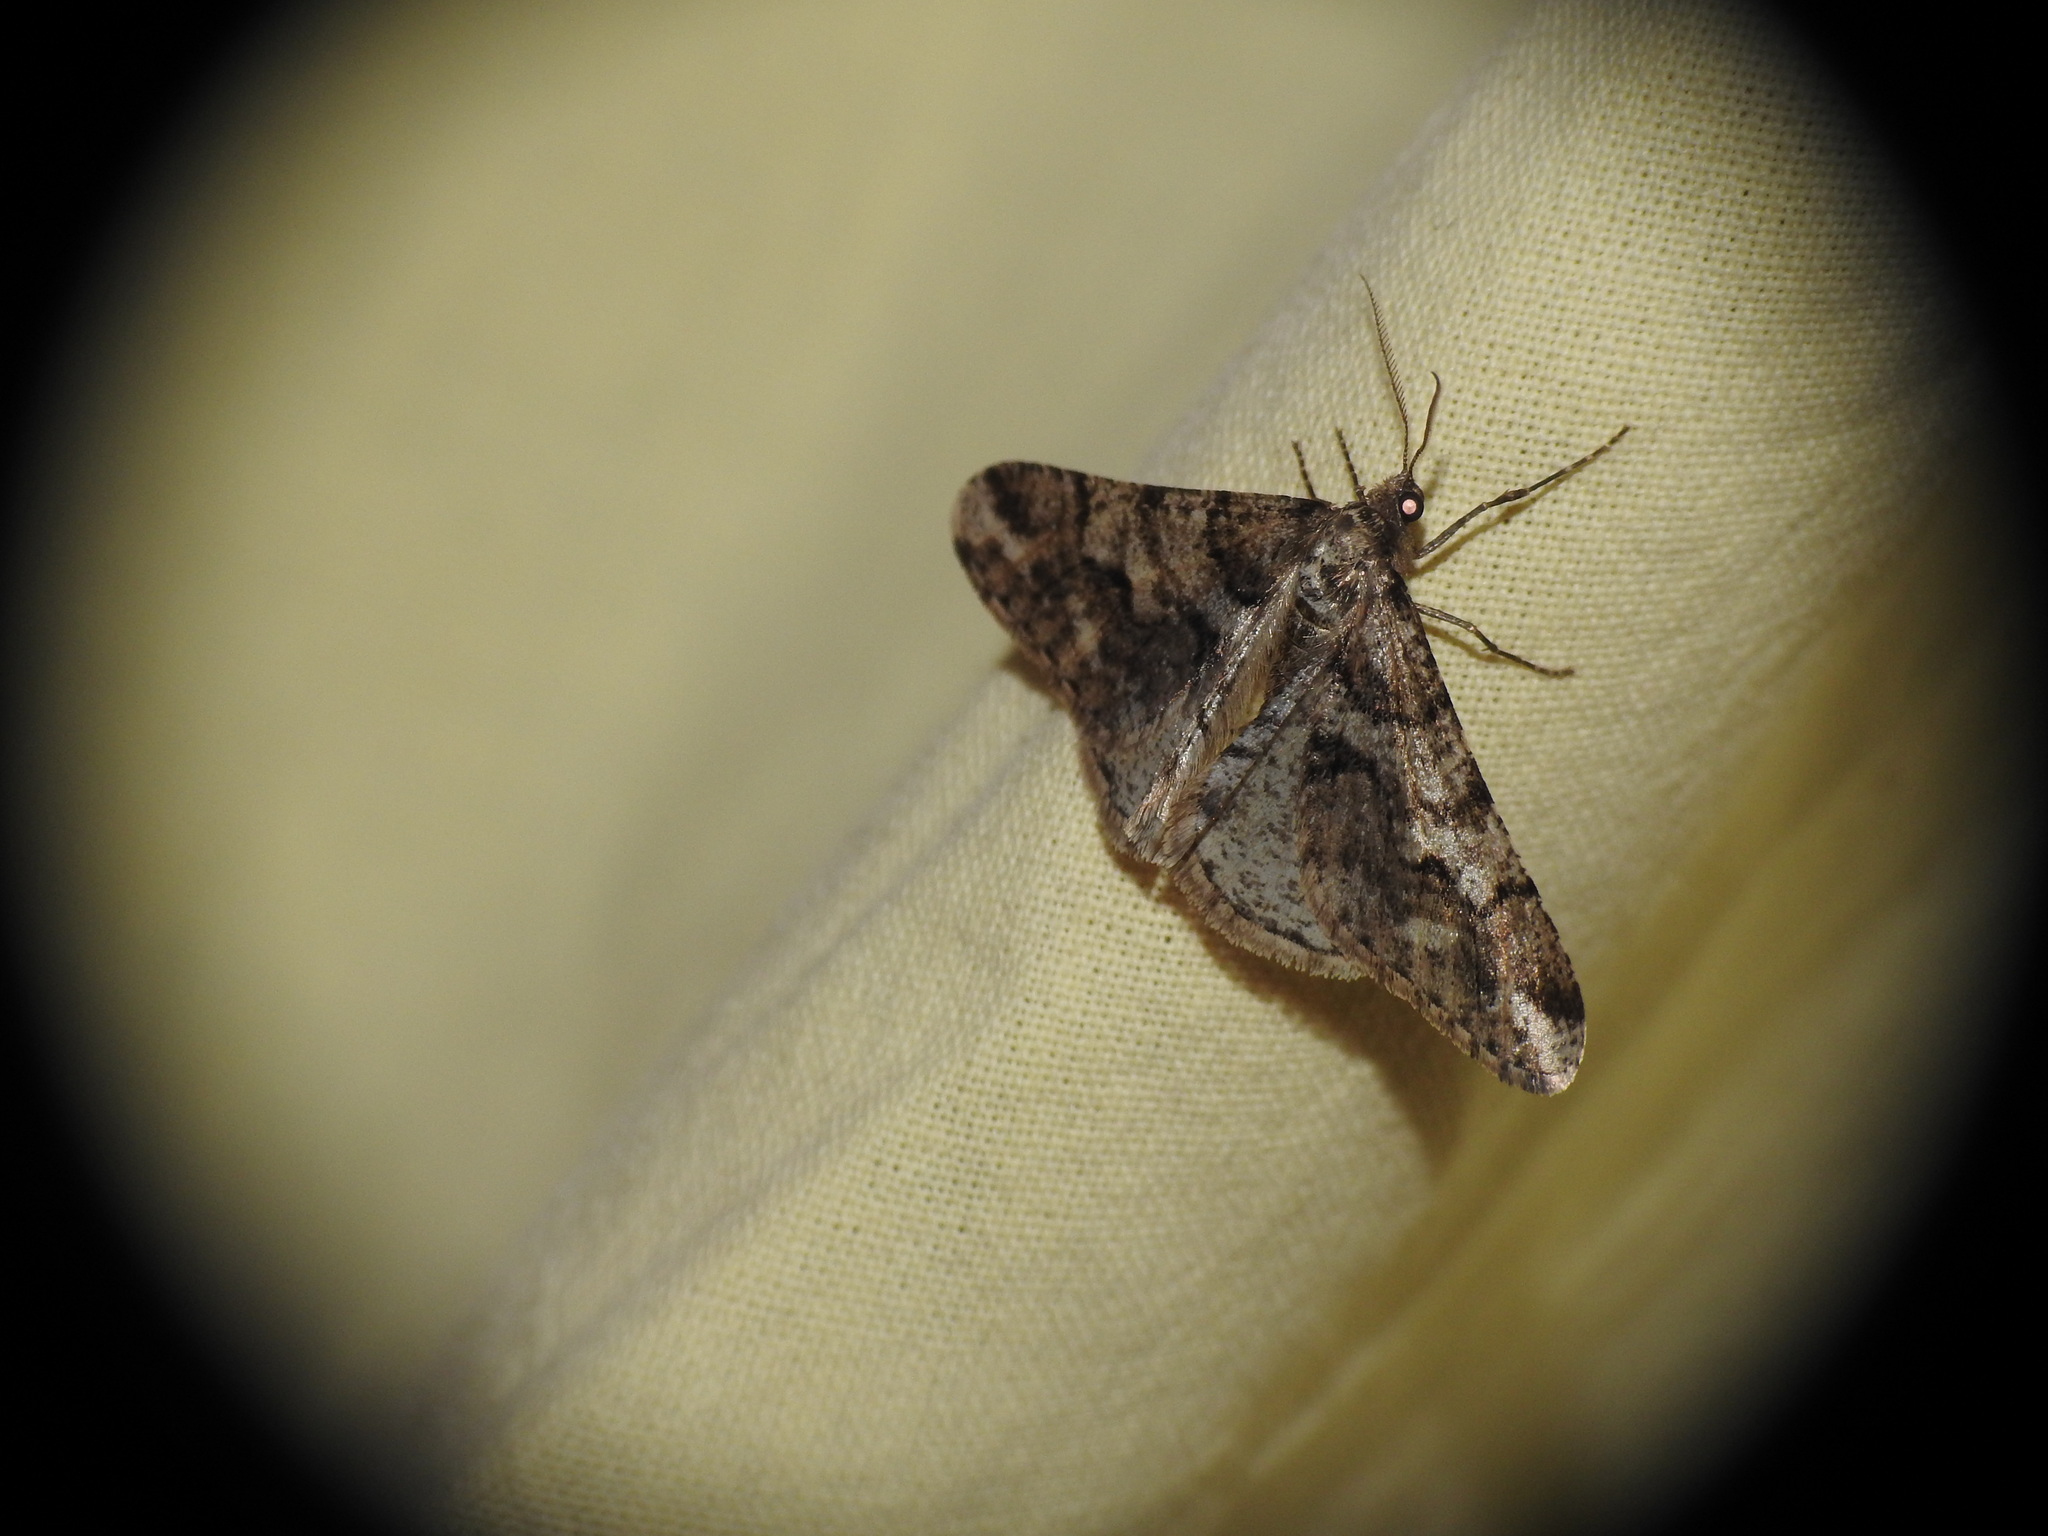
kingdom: Animalia
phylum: Arthropoda
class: Insecta
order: Lepidoptera
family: Geometridae
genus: Agriopis
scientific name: Agriopis leucophaearia
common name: Spring usher
